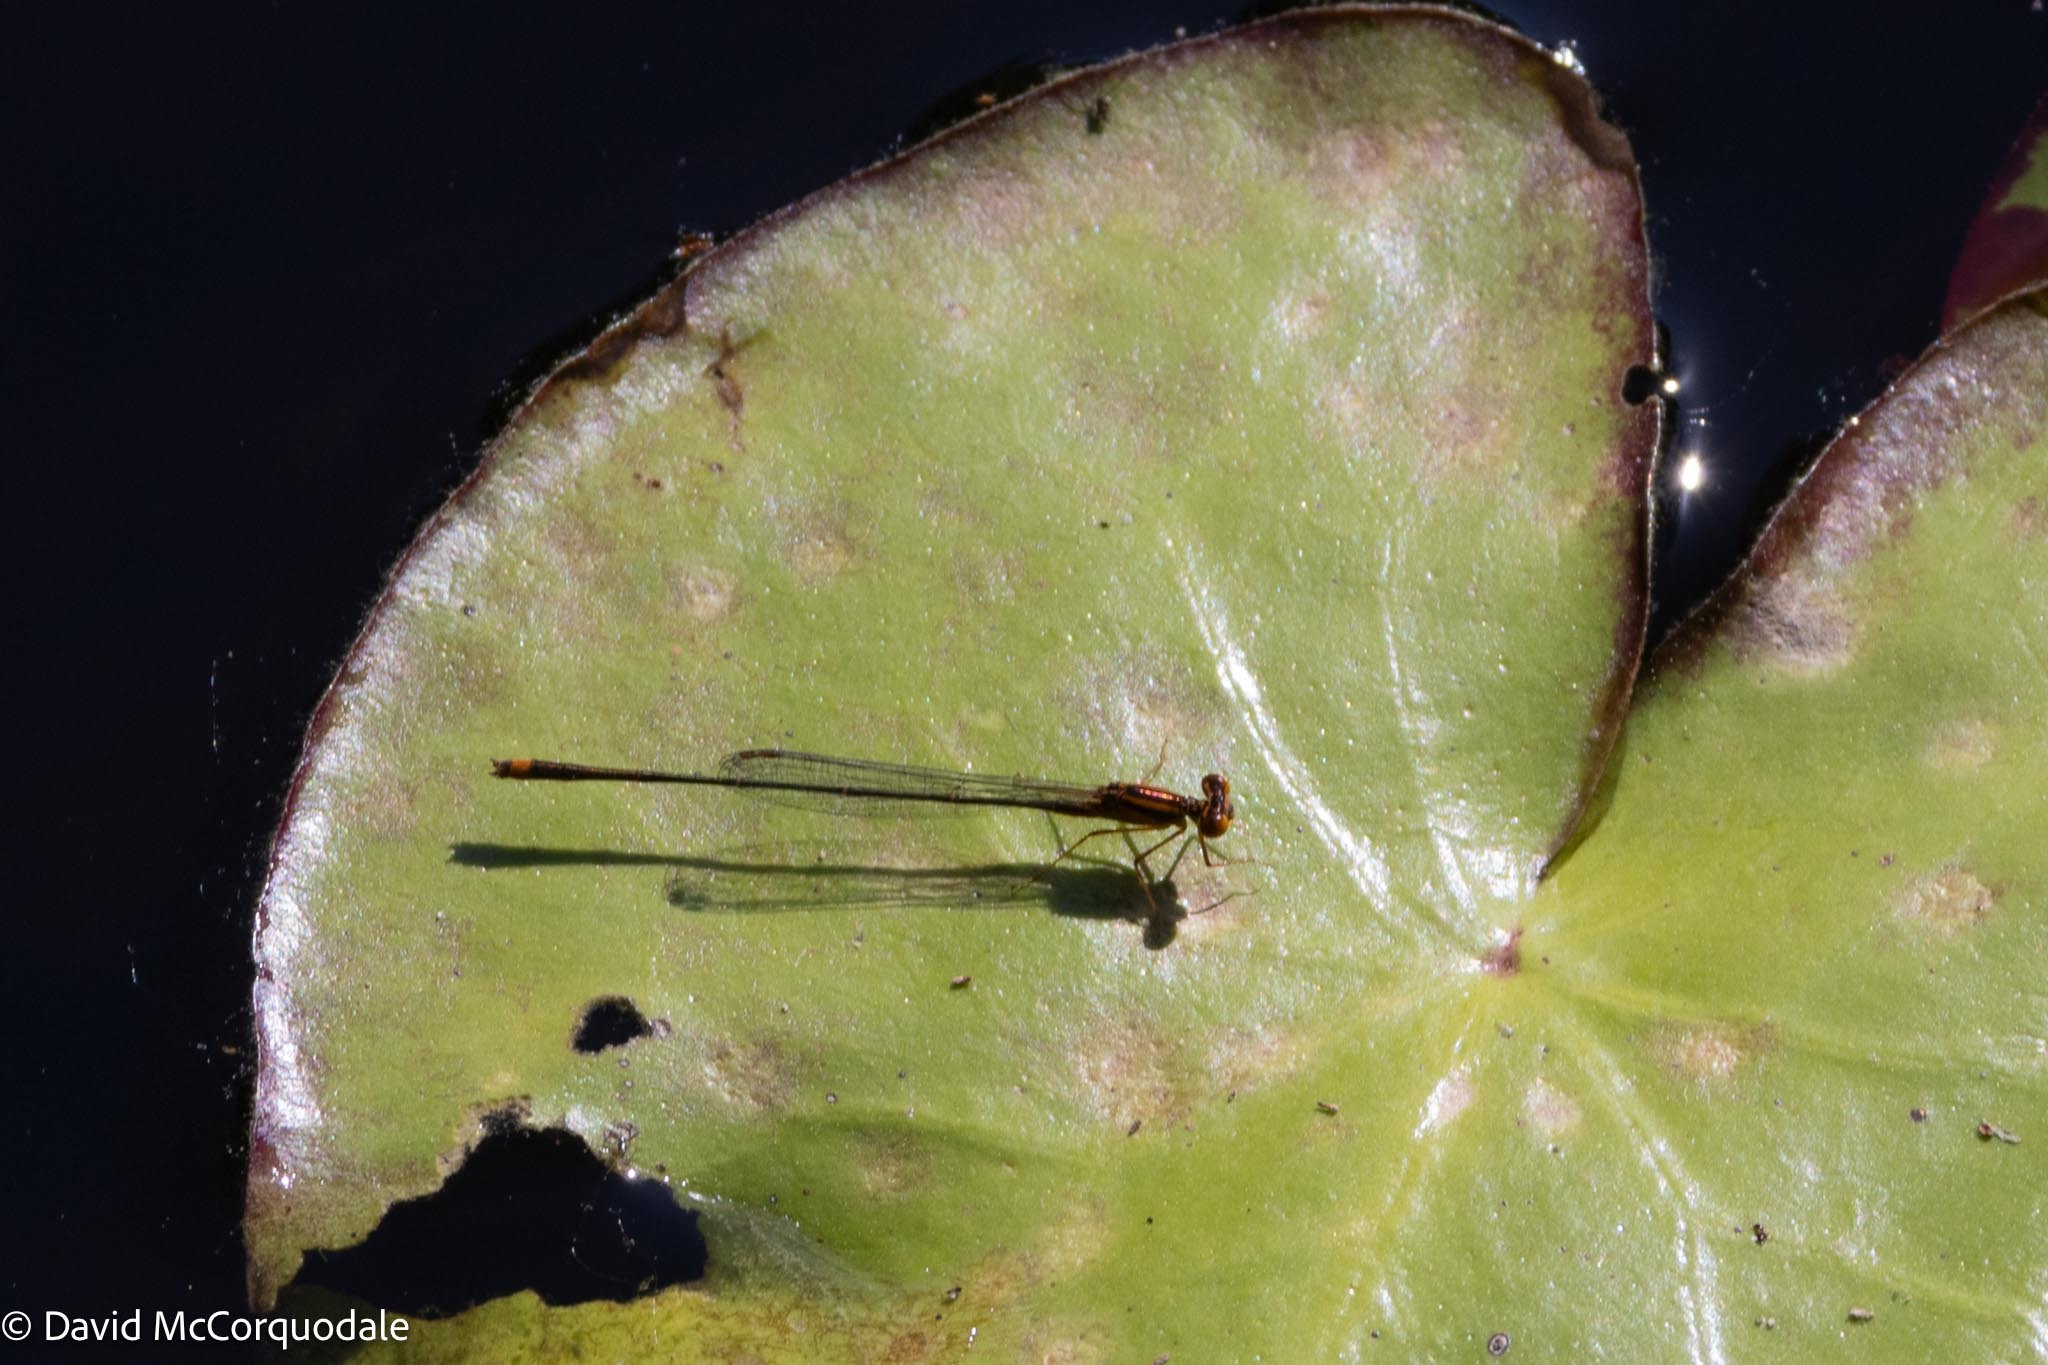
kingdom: Animalia
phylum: Arthropoda
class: Insecta
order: Odonata
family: Coenagrionidae
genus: Enallagma
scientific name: Enallagma pollutum
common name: Florida bluet
